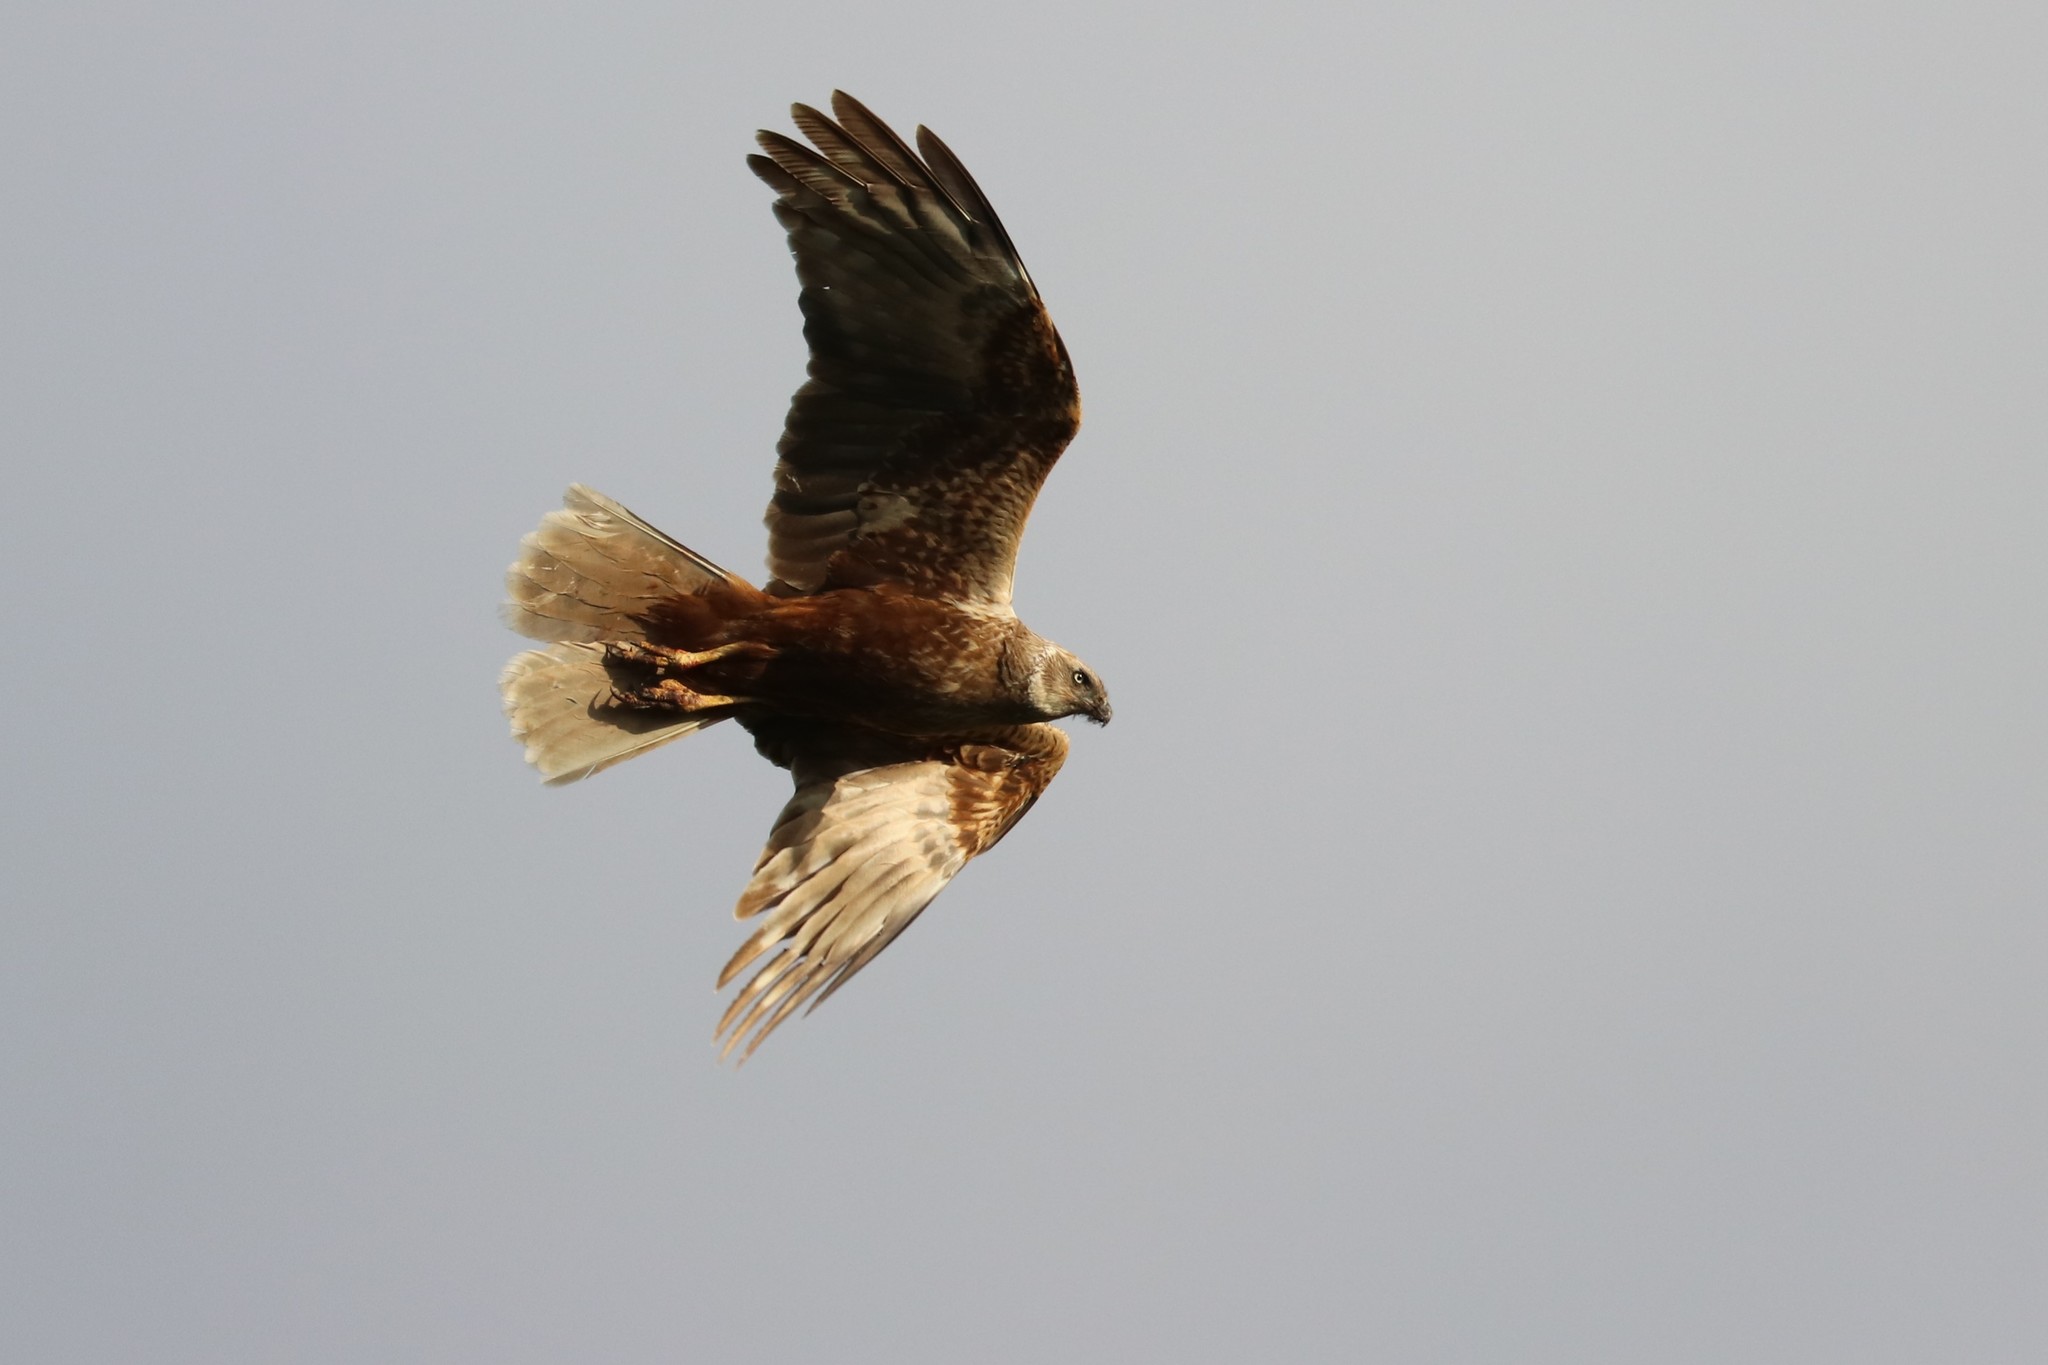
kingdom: Animalia
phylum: Chordata
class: Aves
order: Accipitriformes
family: Accipitridae
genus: Circus
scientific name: Circus aeruginosus
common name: Western marsh harrier
